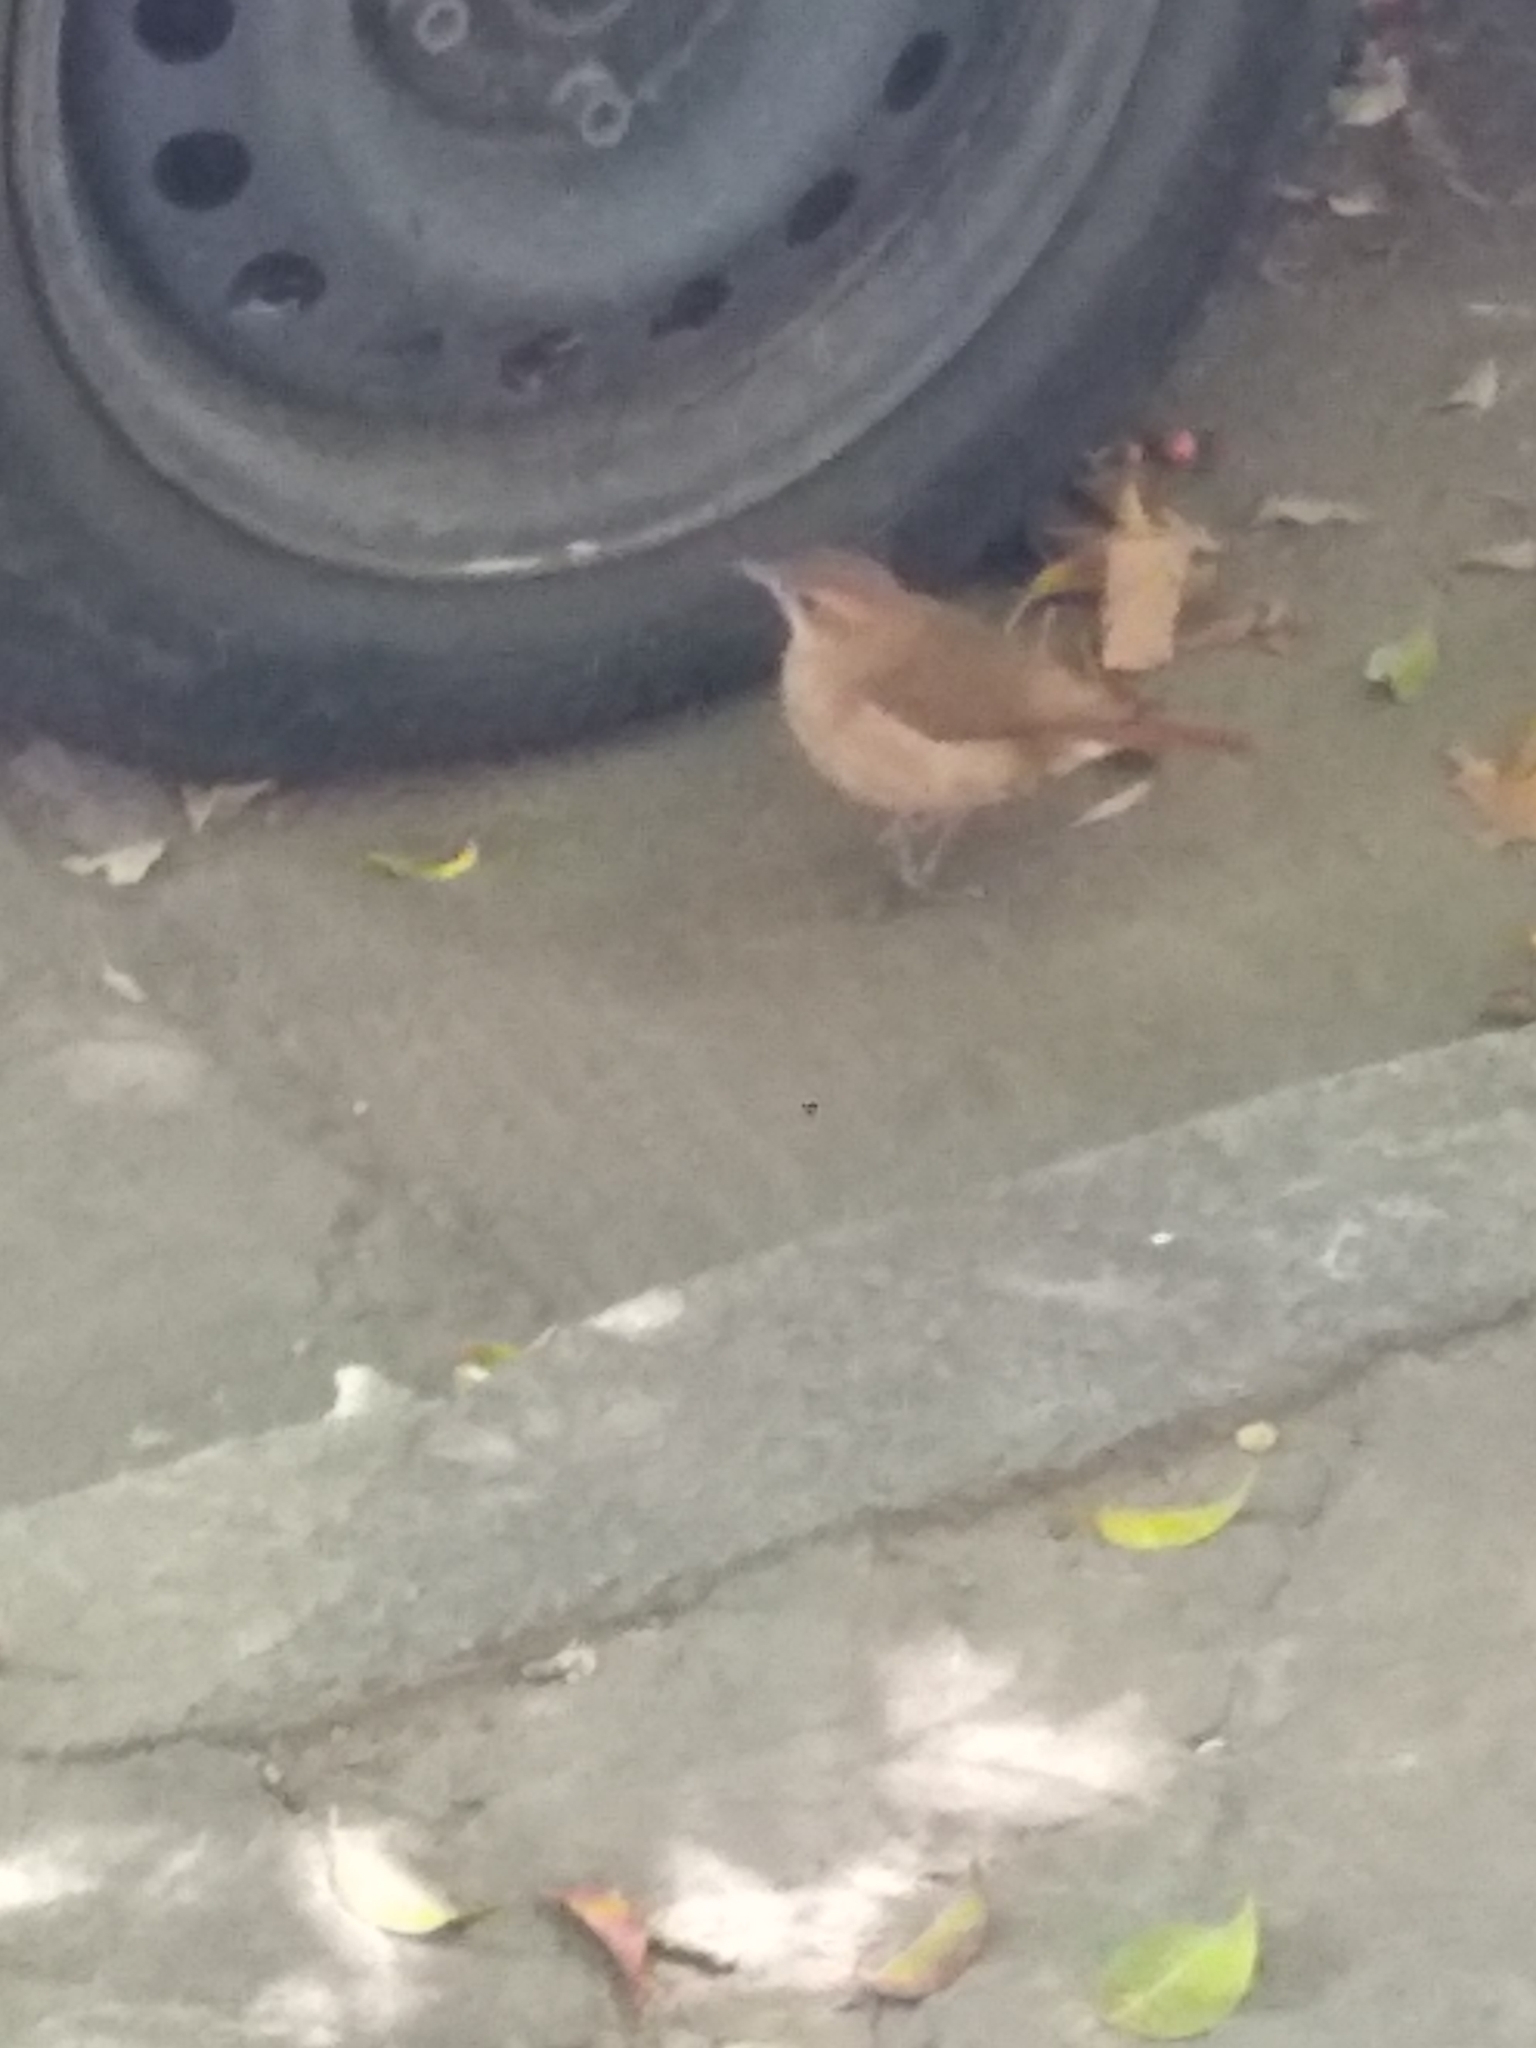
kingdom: Animalia
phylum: Chordata
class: Aves
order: Passeriformes
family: Furnariidae
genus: Furnarius
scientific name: Furnarius rufus
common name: Rufous hornero
